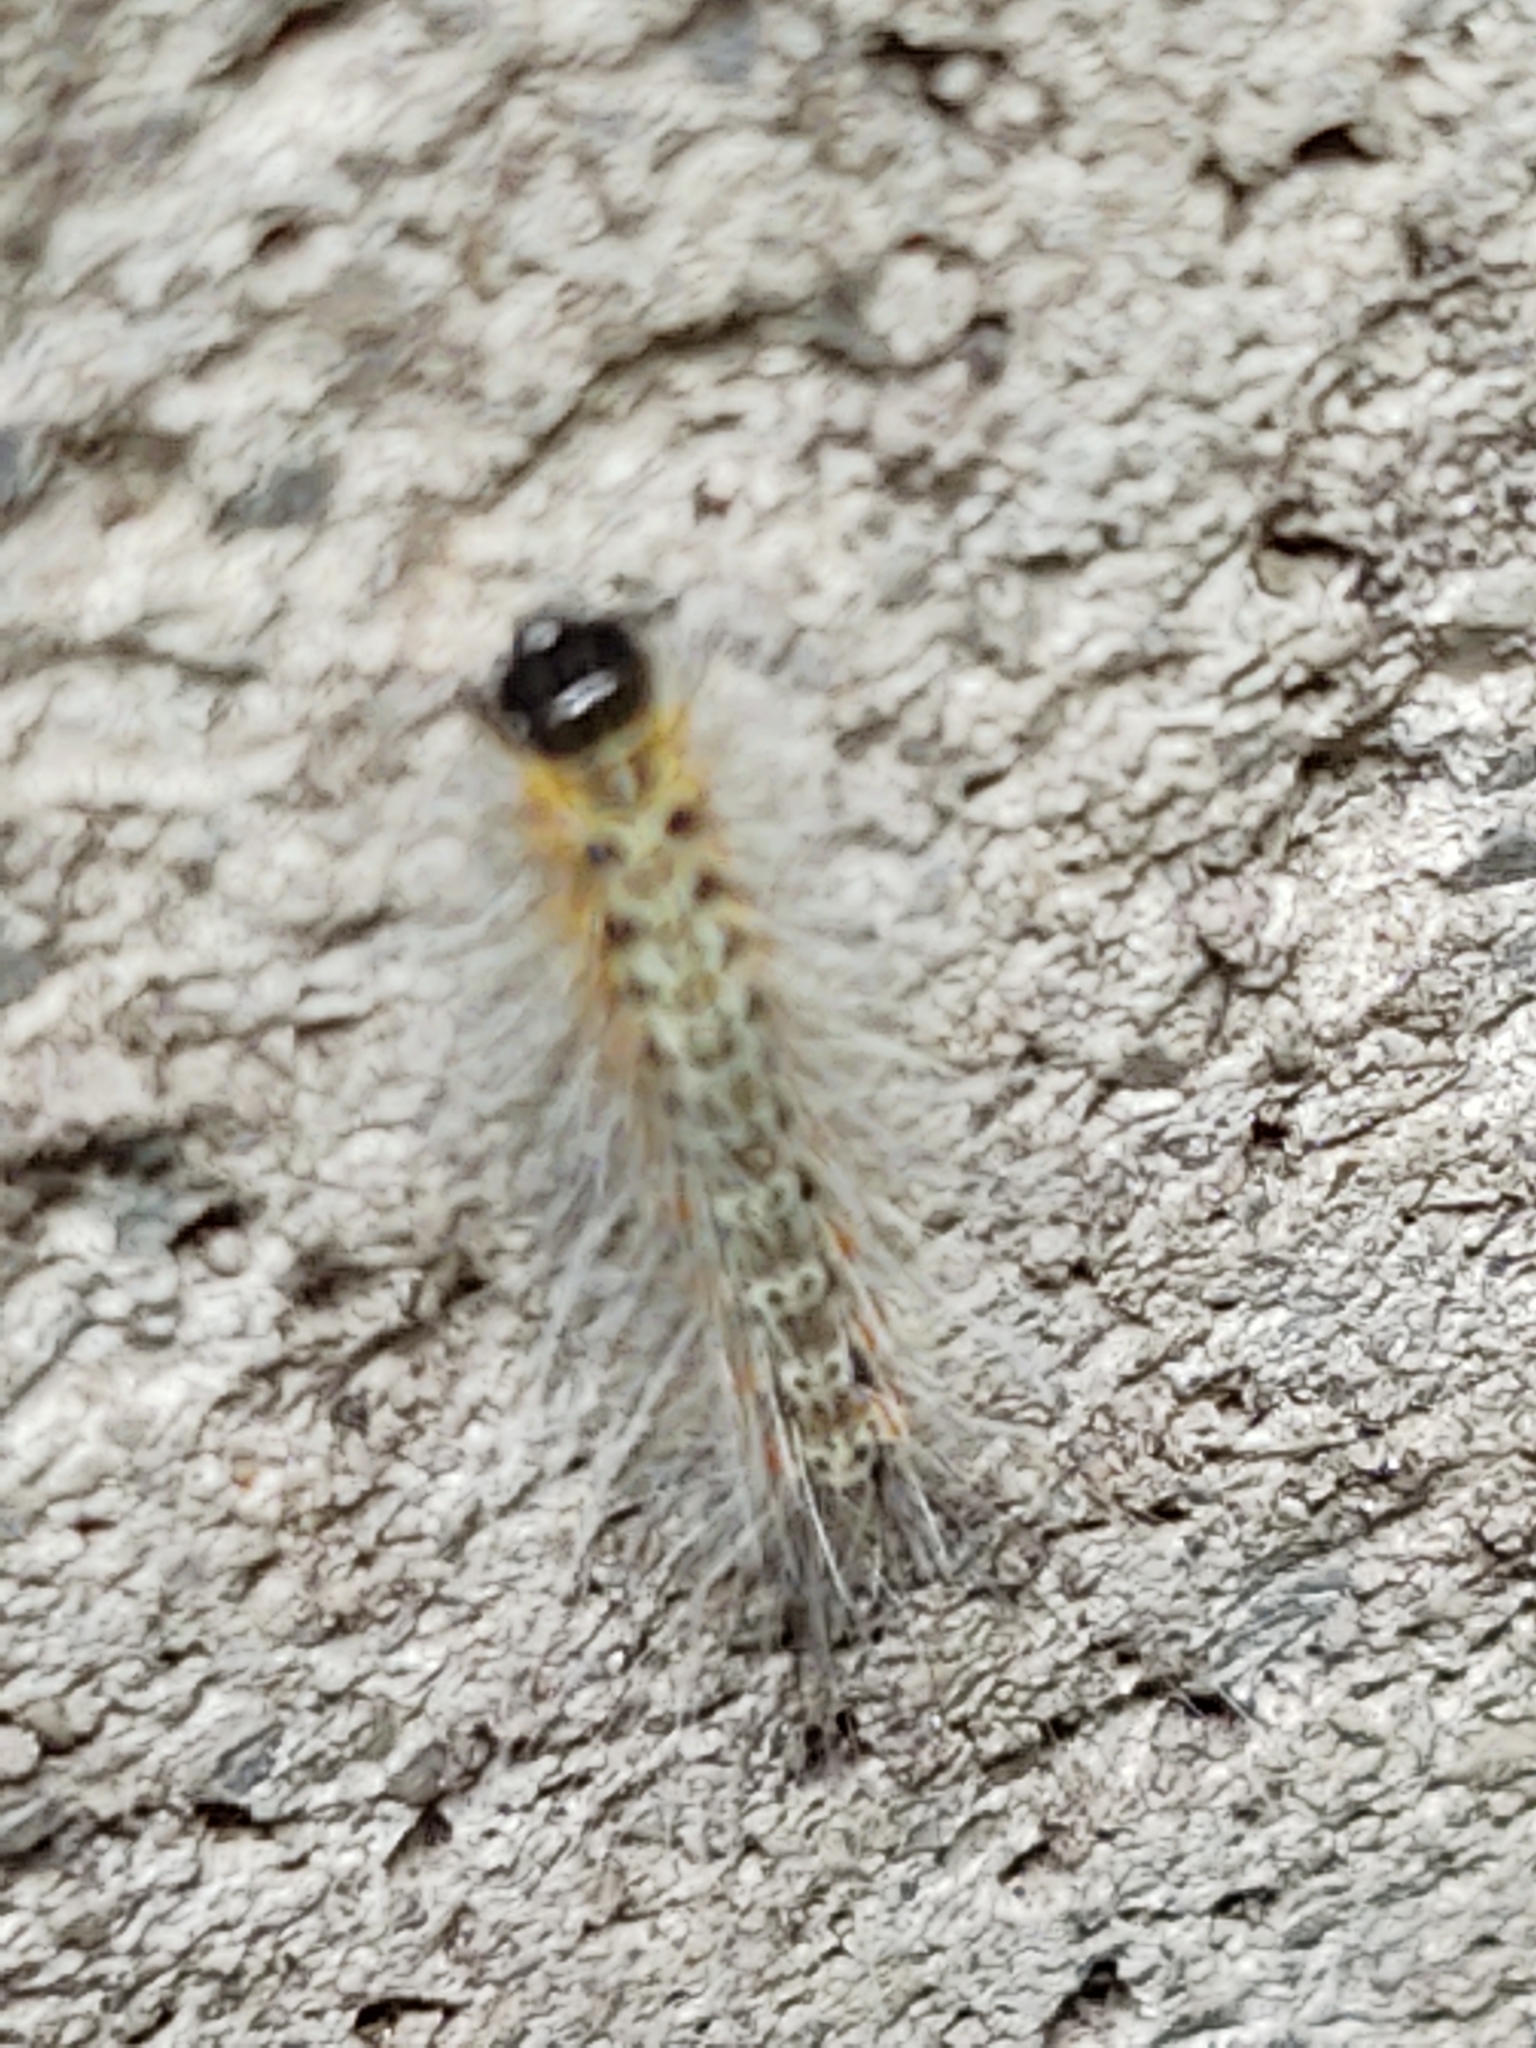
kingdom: Animalia
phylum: Arthropoda
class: Insecta
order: Lepidoptera
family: Erebidae
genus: Hyphantria
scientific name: Hyphantria cunea
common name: American white moth
